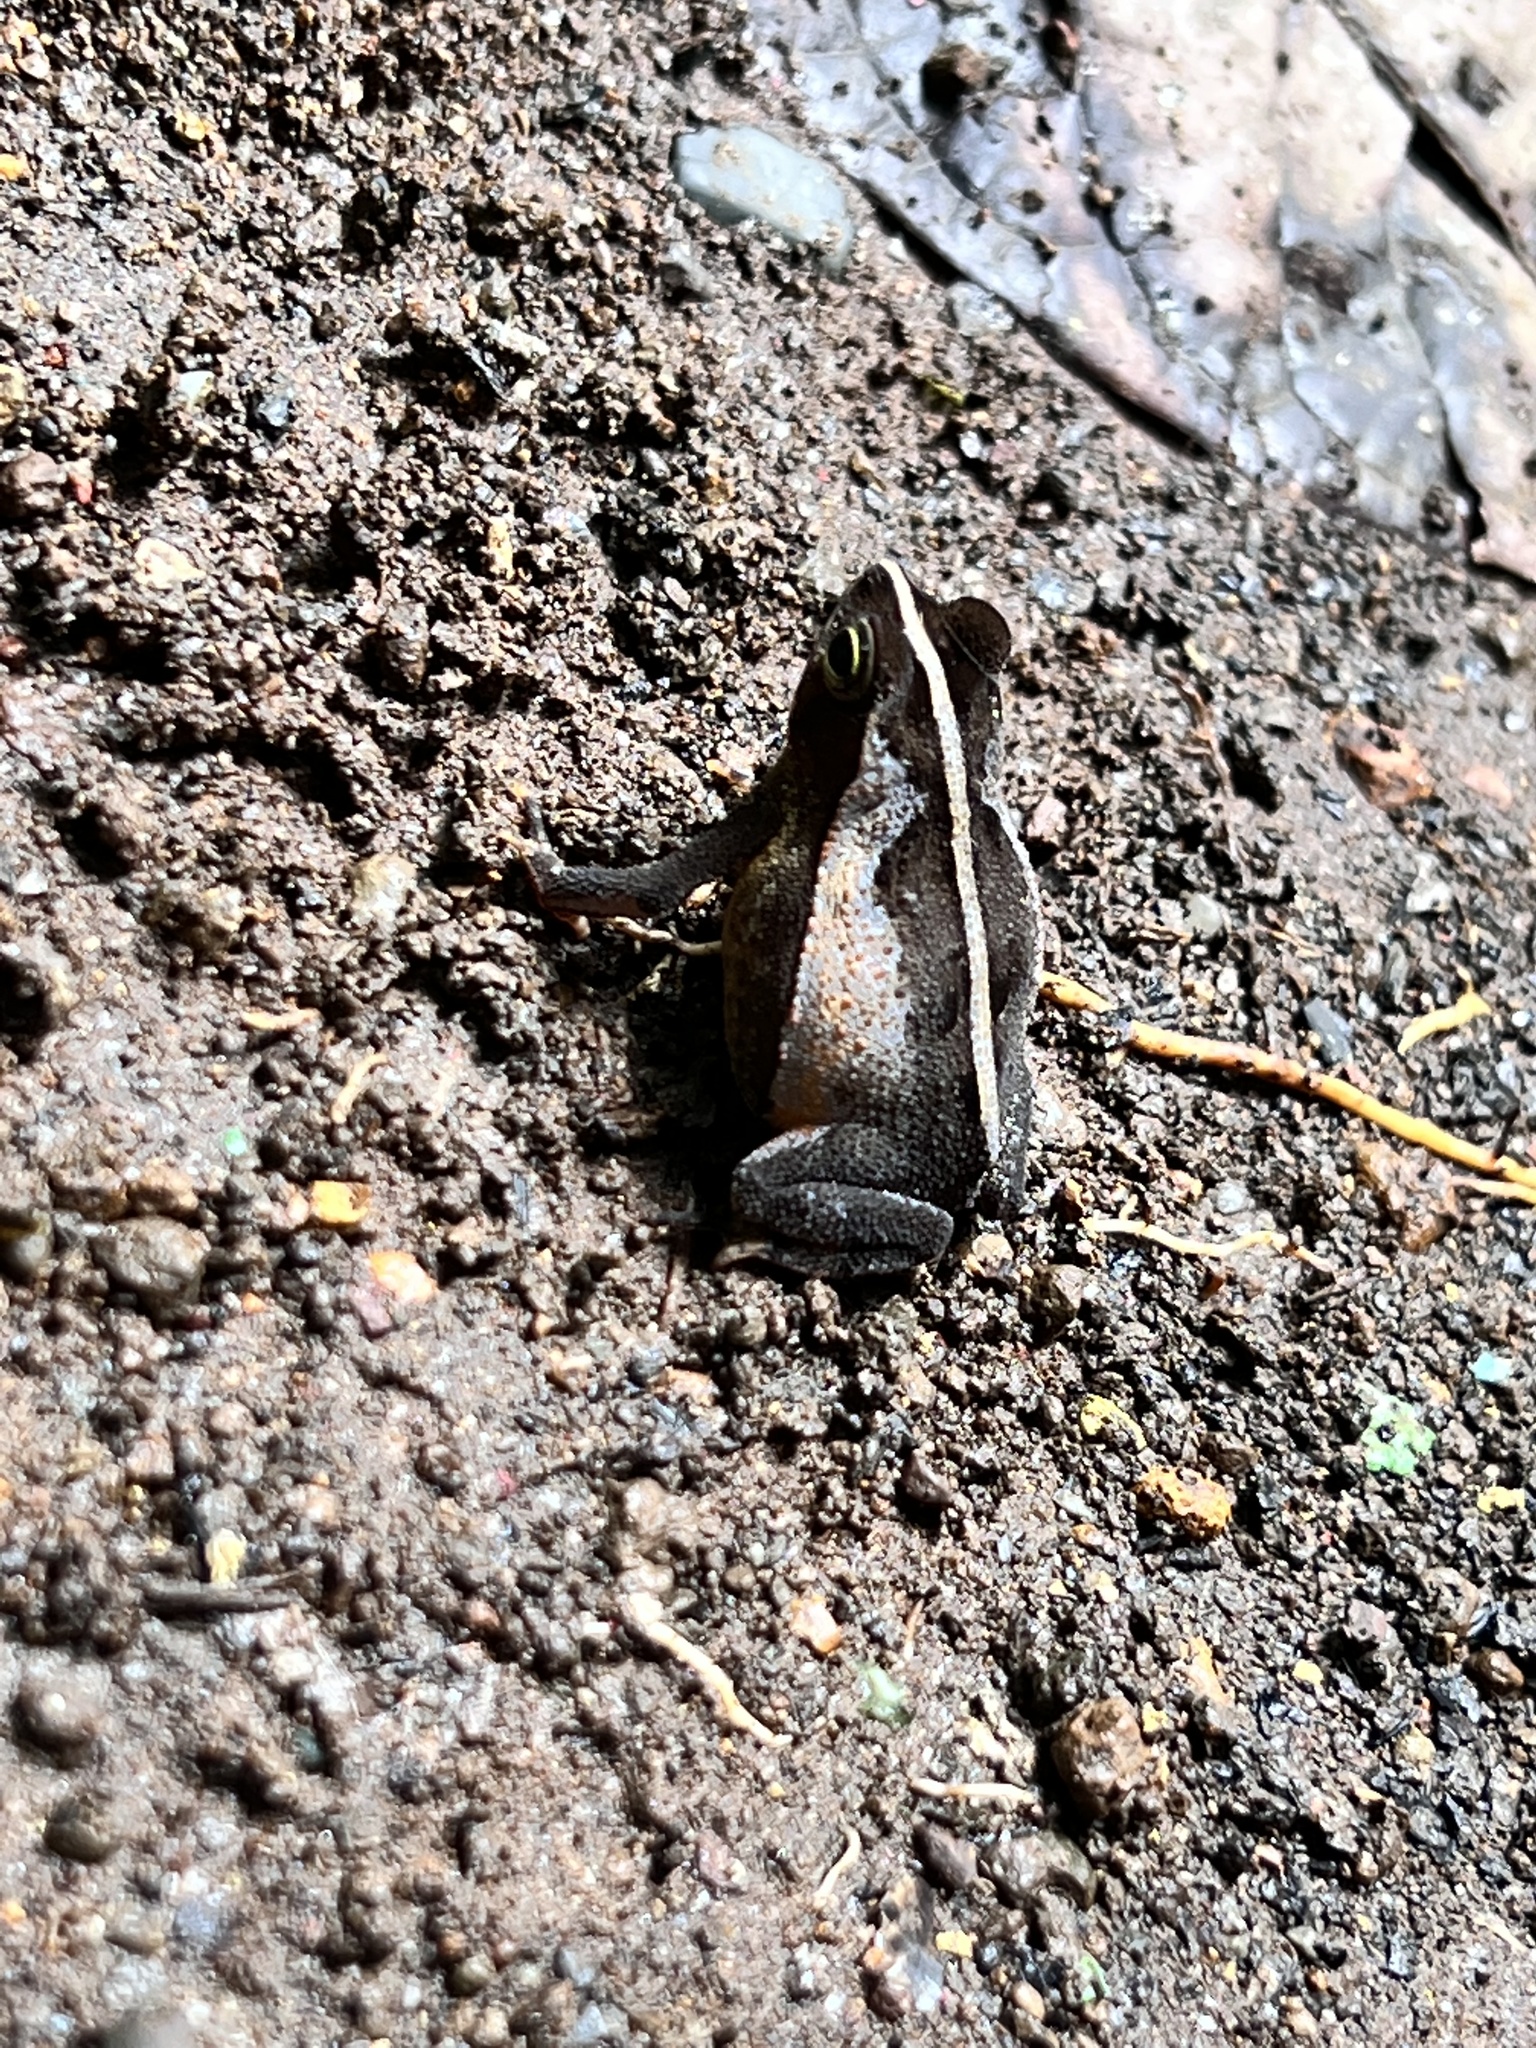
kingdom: Animalia
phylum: Chordata
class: Amphibia
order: Anura
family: Bufonidae
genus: Rhinella
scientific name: Rhinella alata
